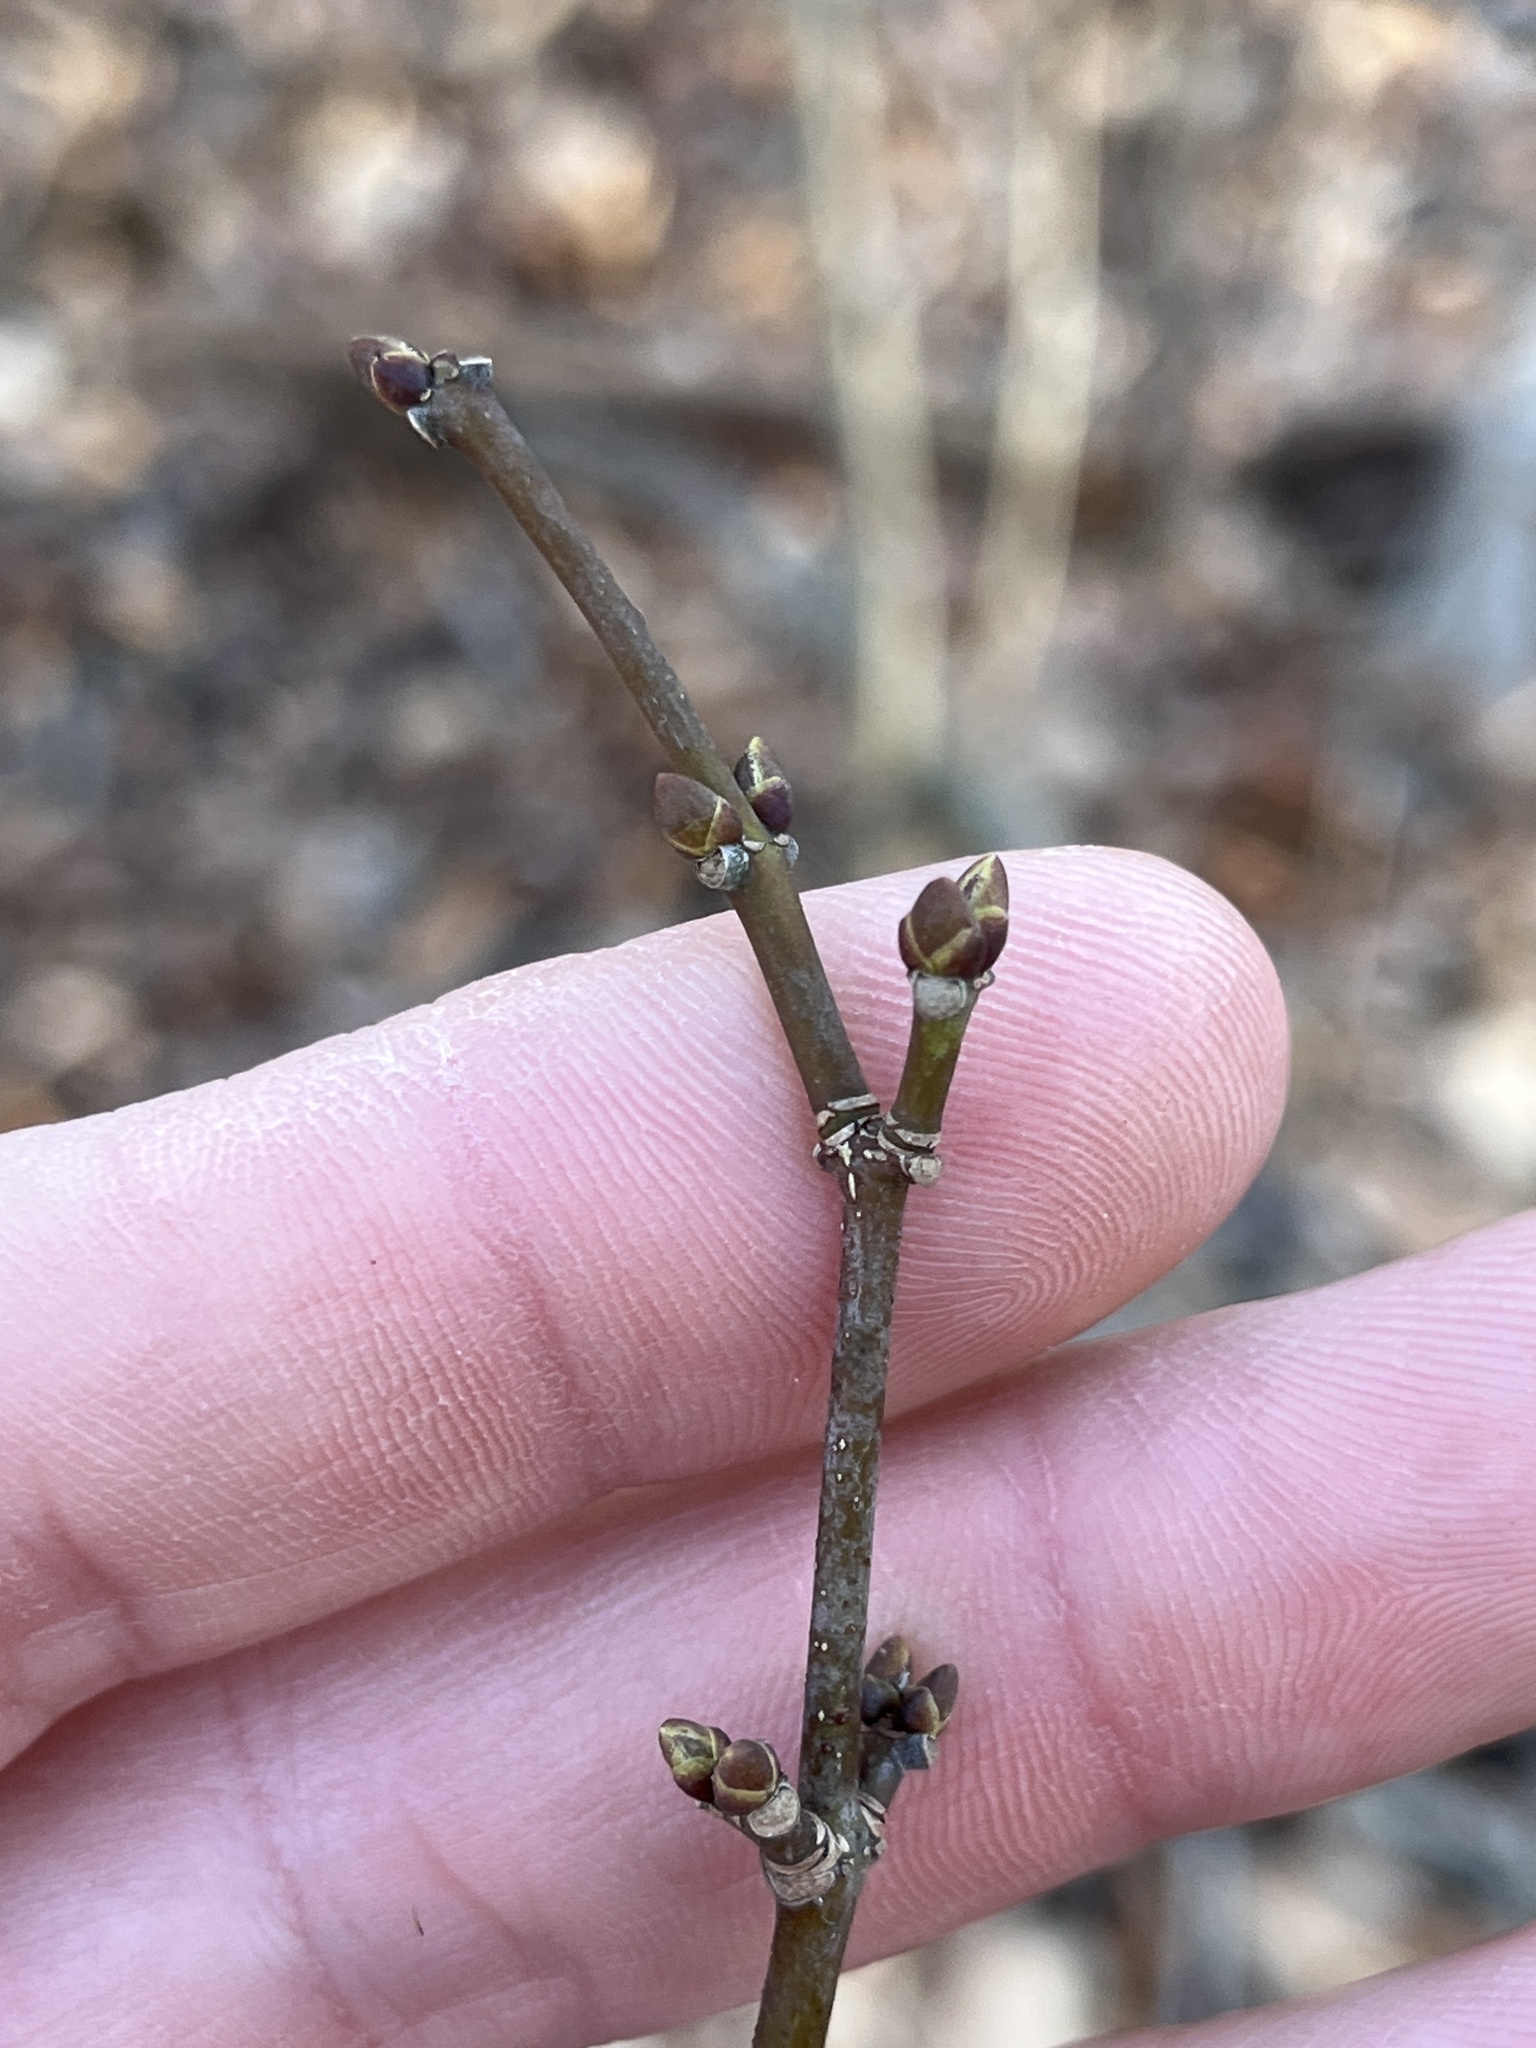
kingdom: Plantae
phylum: Tracheophyta
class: Magnoliopsida
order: Crossosomatales
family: Staphyleaceae
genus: Staphylea
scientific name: Staphylea trifolia
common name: American bladdernut
